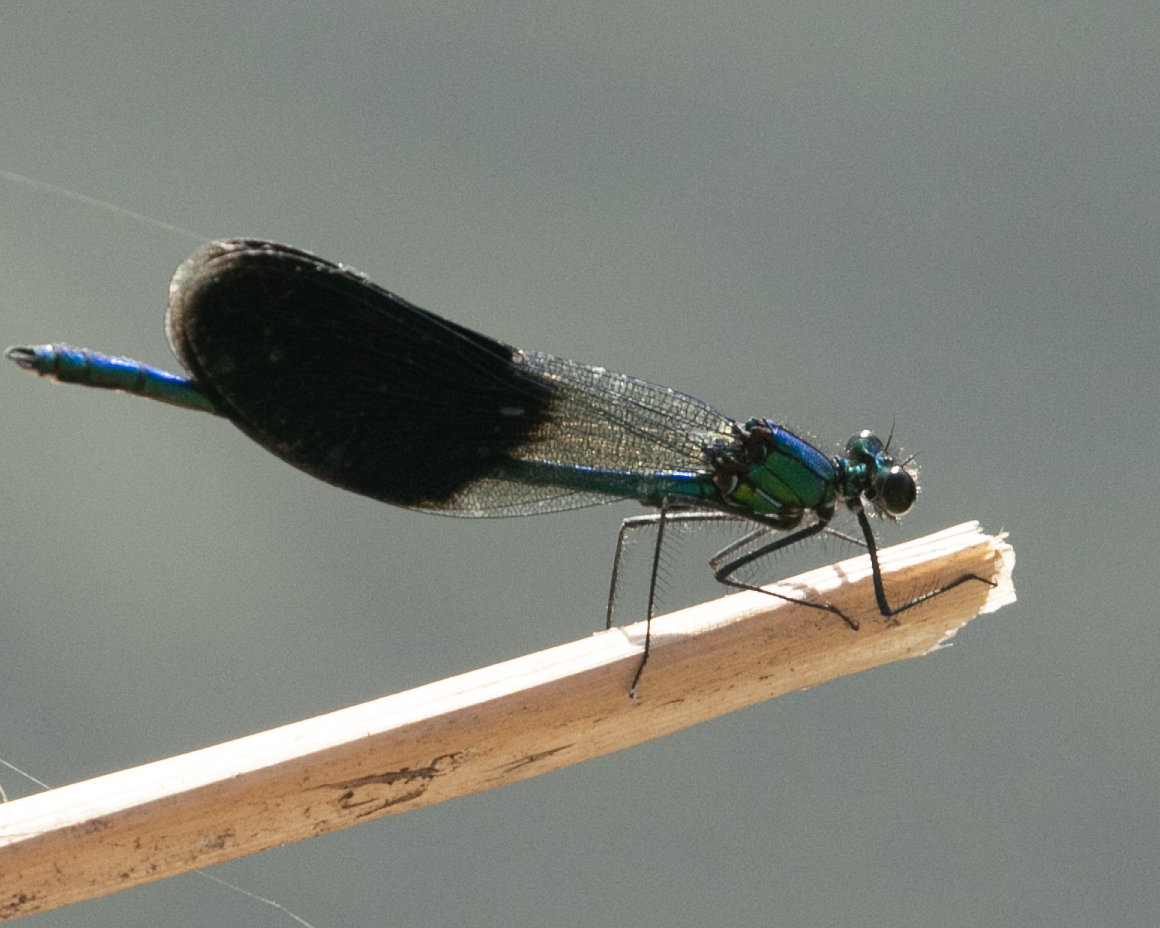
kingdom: Animalia
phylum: Arthropoda
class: Insecta
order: Odonata
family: Calopterygidae
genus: Calopteryx
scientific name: Calopteryx splendens
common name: Banded demoiselle
